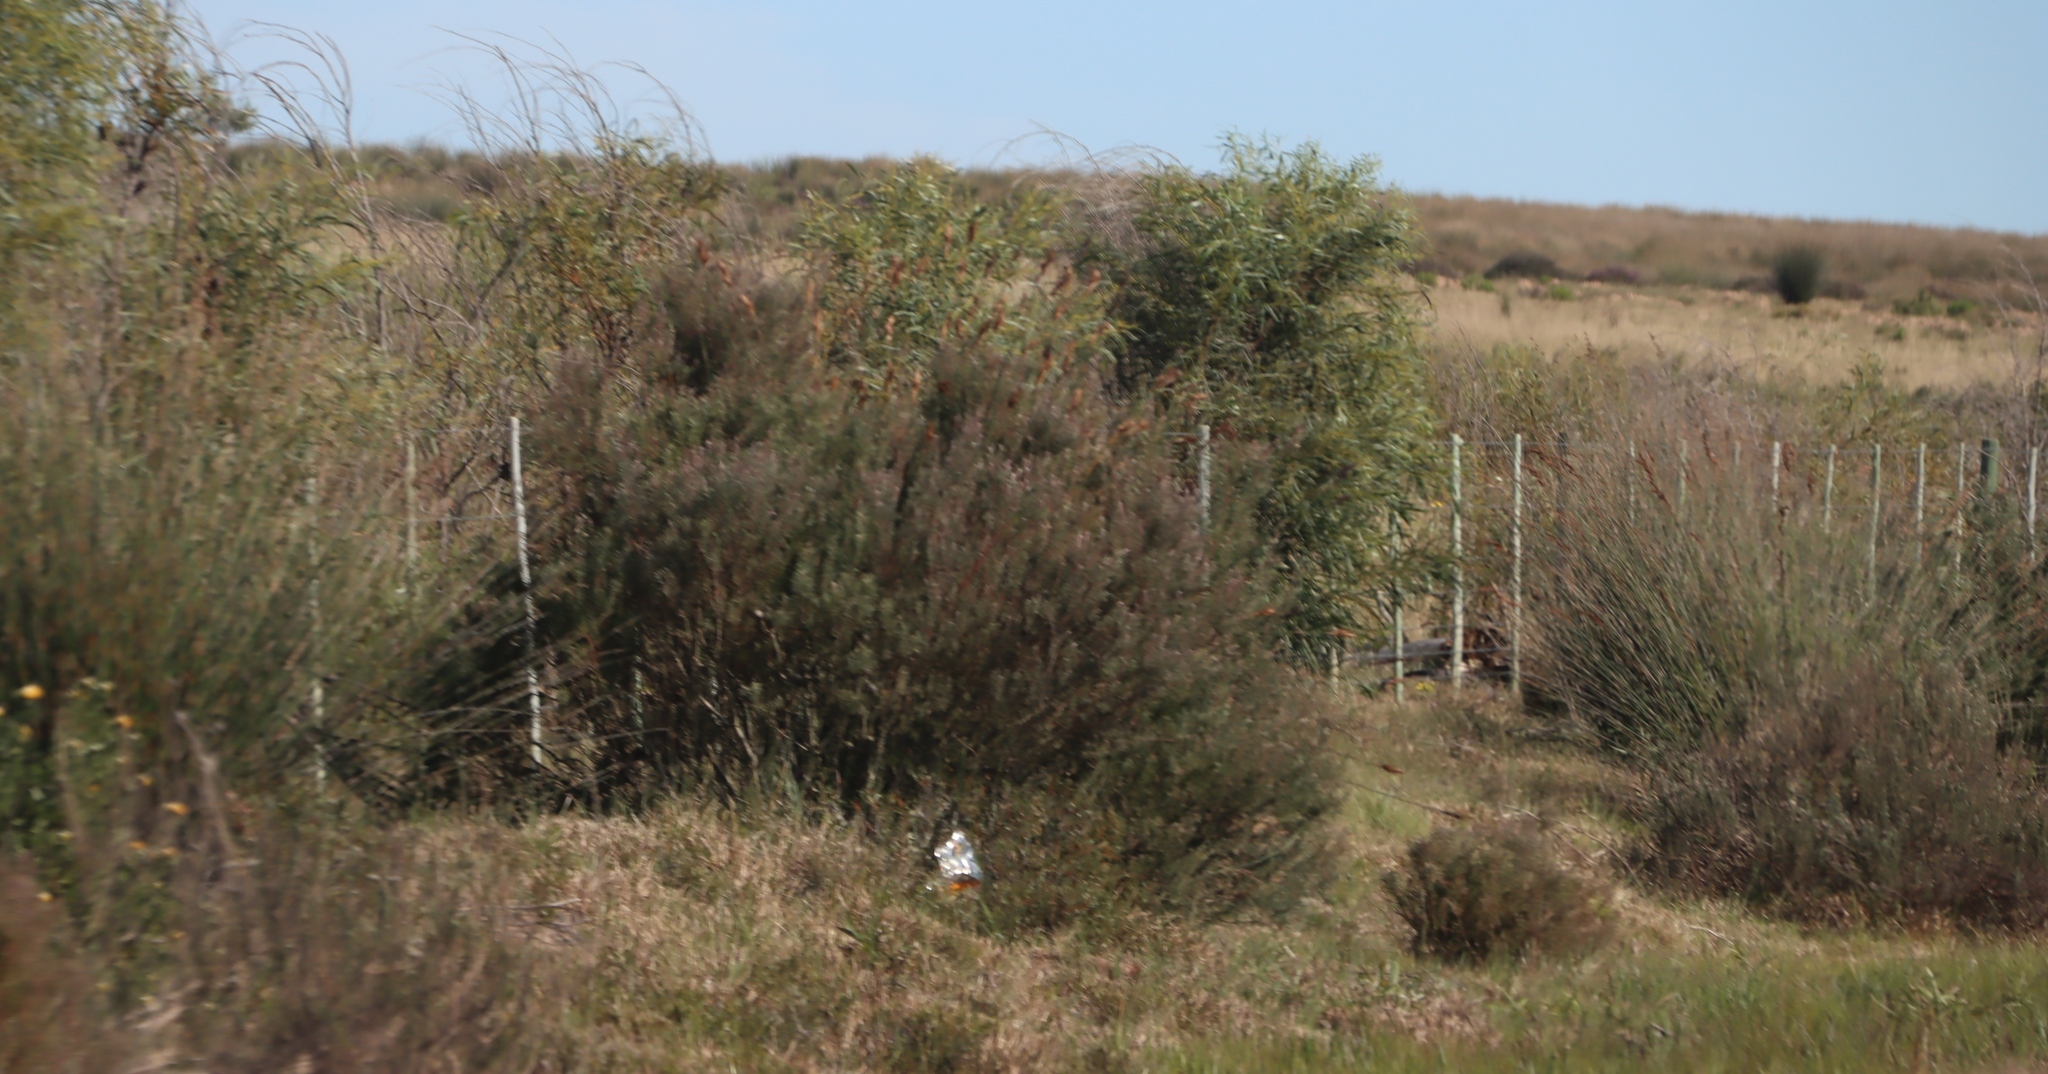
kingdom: Plantae
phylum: Tracheophyta
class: Magnoliopsida
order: Proteales
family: Proteaceae
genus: Leucadendron
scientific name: Leucadendron galpinii
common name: Hairless conebush
